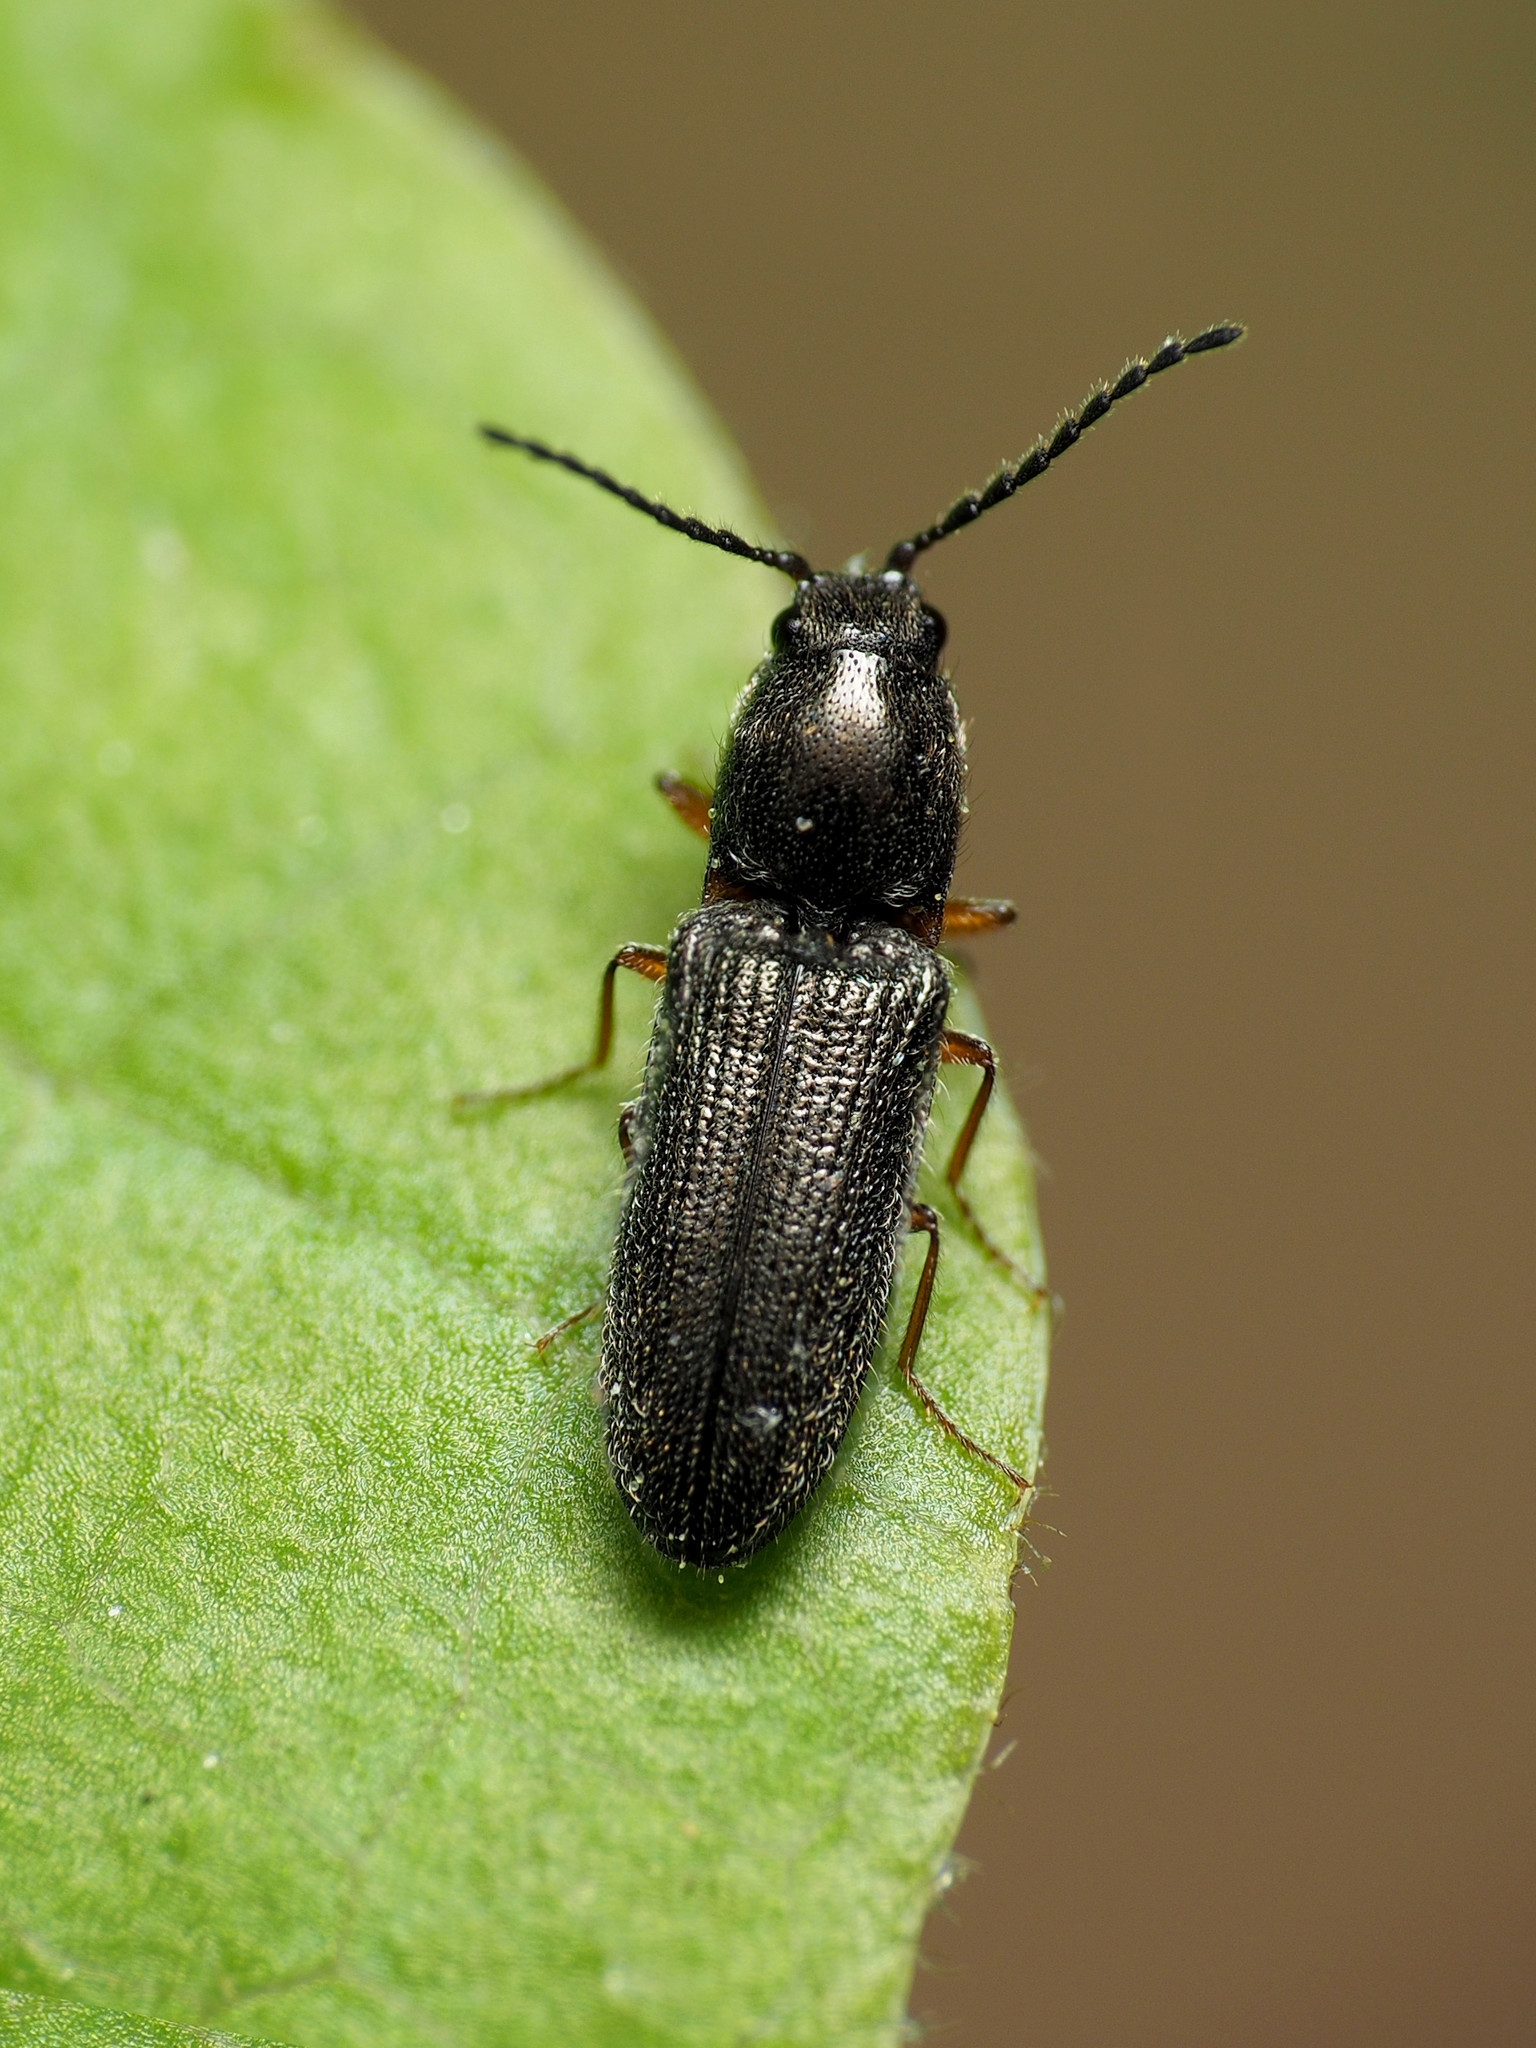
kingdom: Animalia
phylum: Arthropoda
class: Insecta
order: Coleoptera
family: Elateridae
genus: Limonius
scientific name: Limonius basilaris
